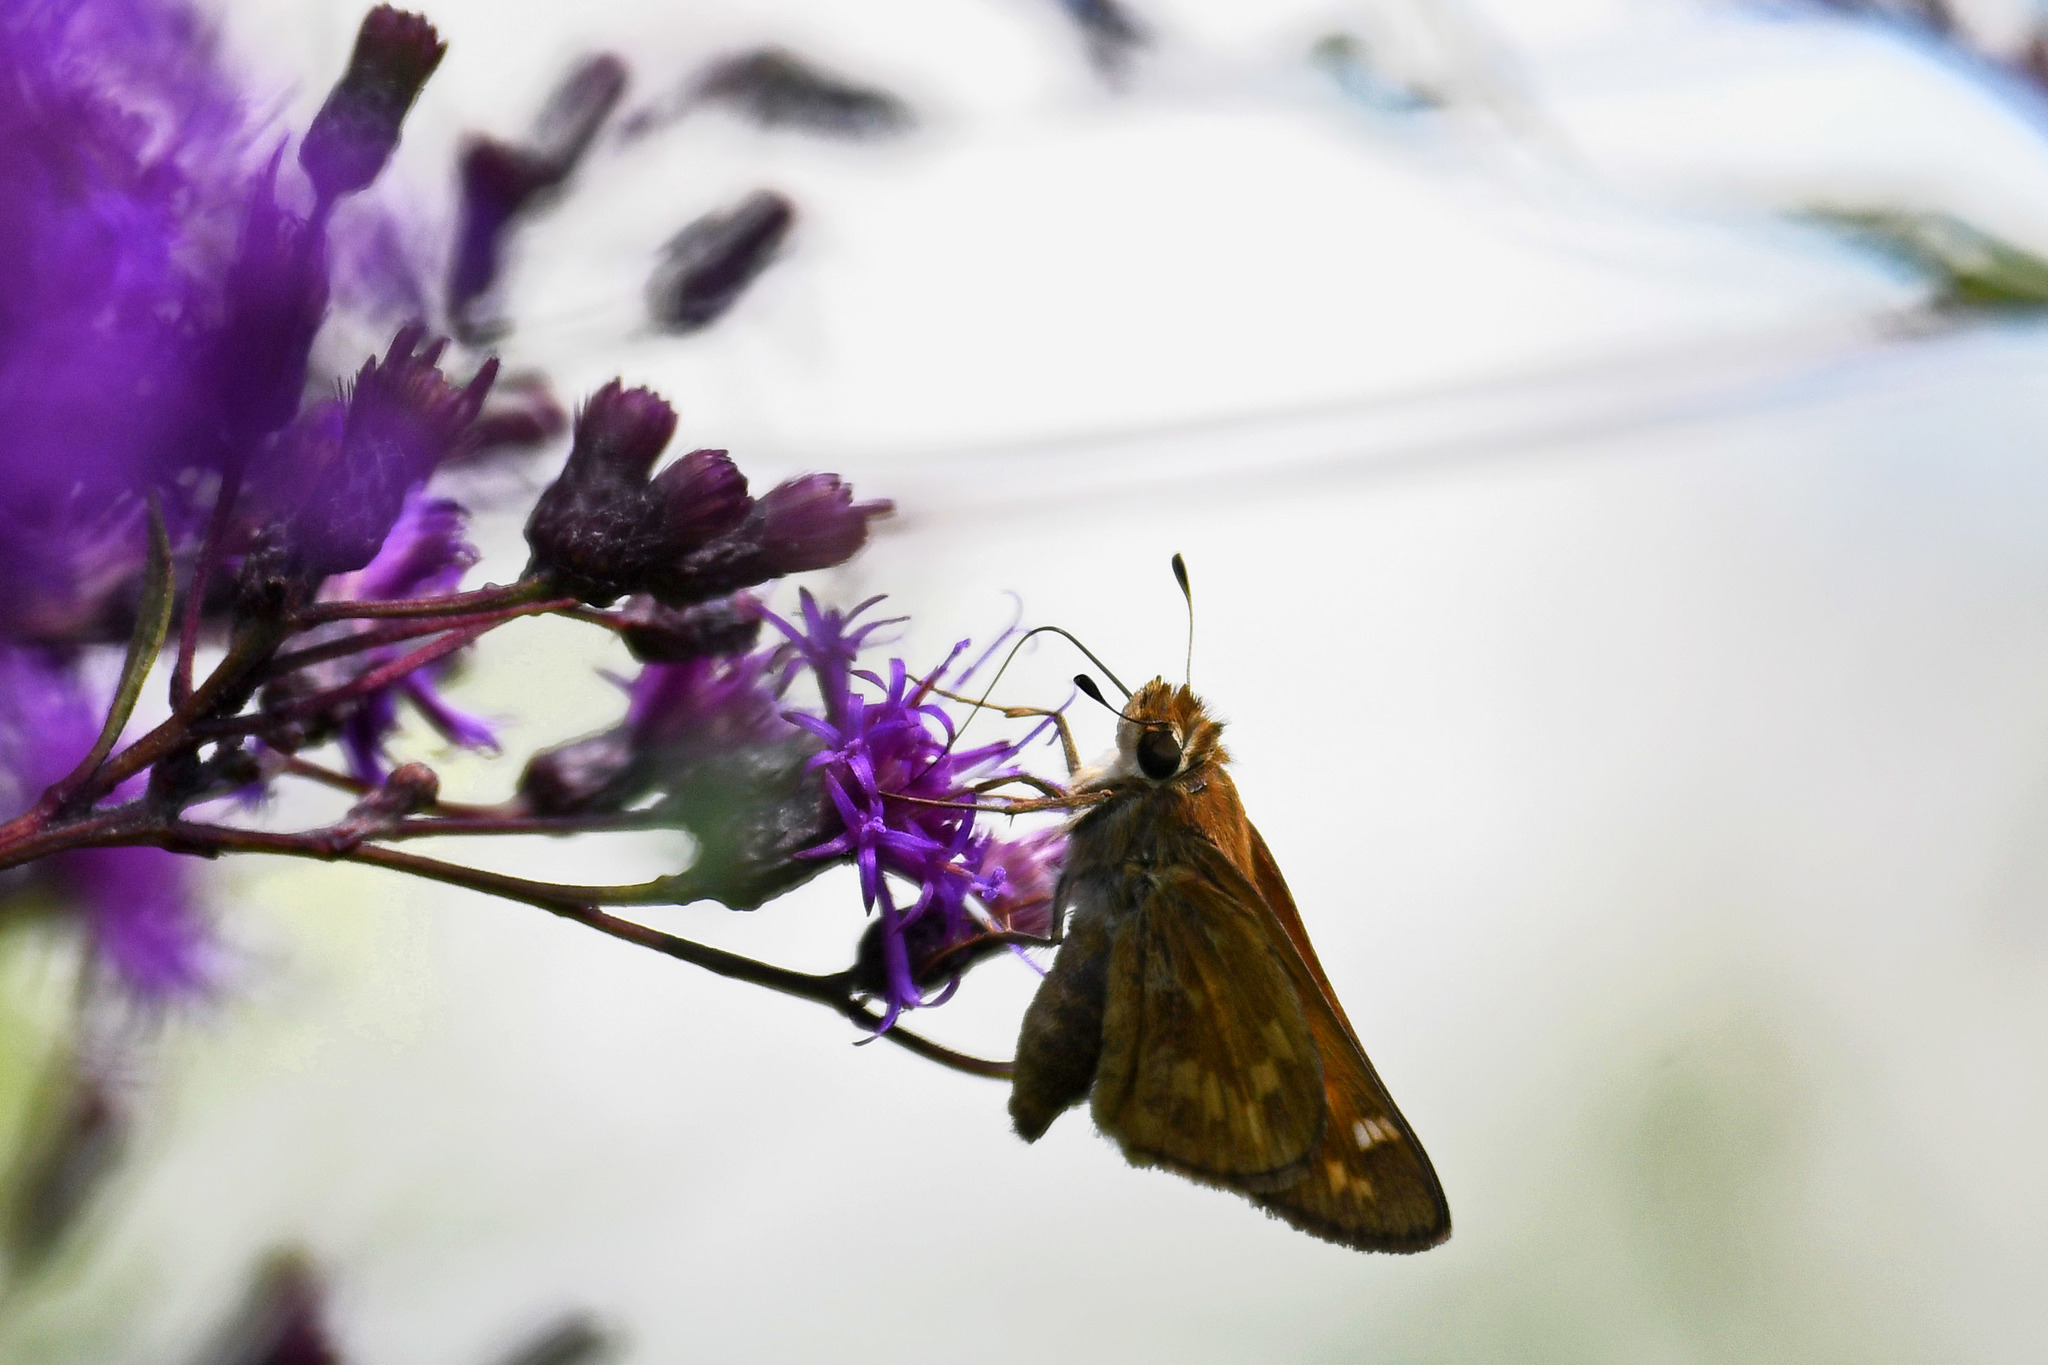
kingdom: Animalia
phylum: Arthropoda
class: Insecta
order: Lepidoptera
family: Hesperiidae
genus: Atalopedes
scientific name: Atalopedes
